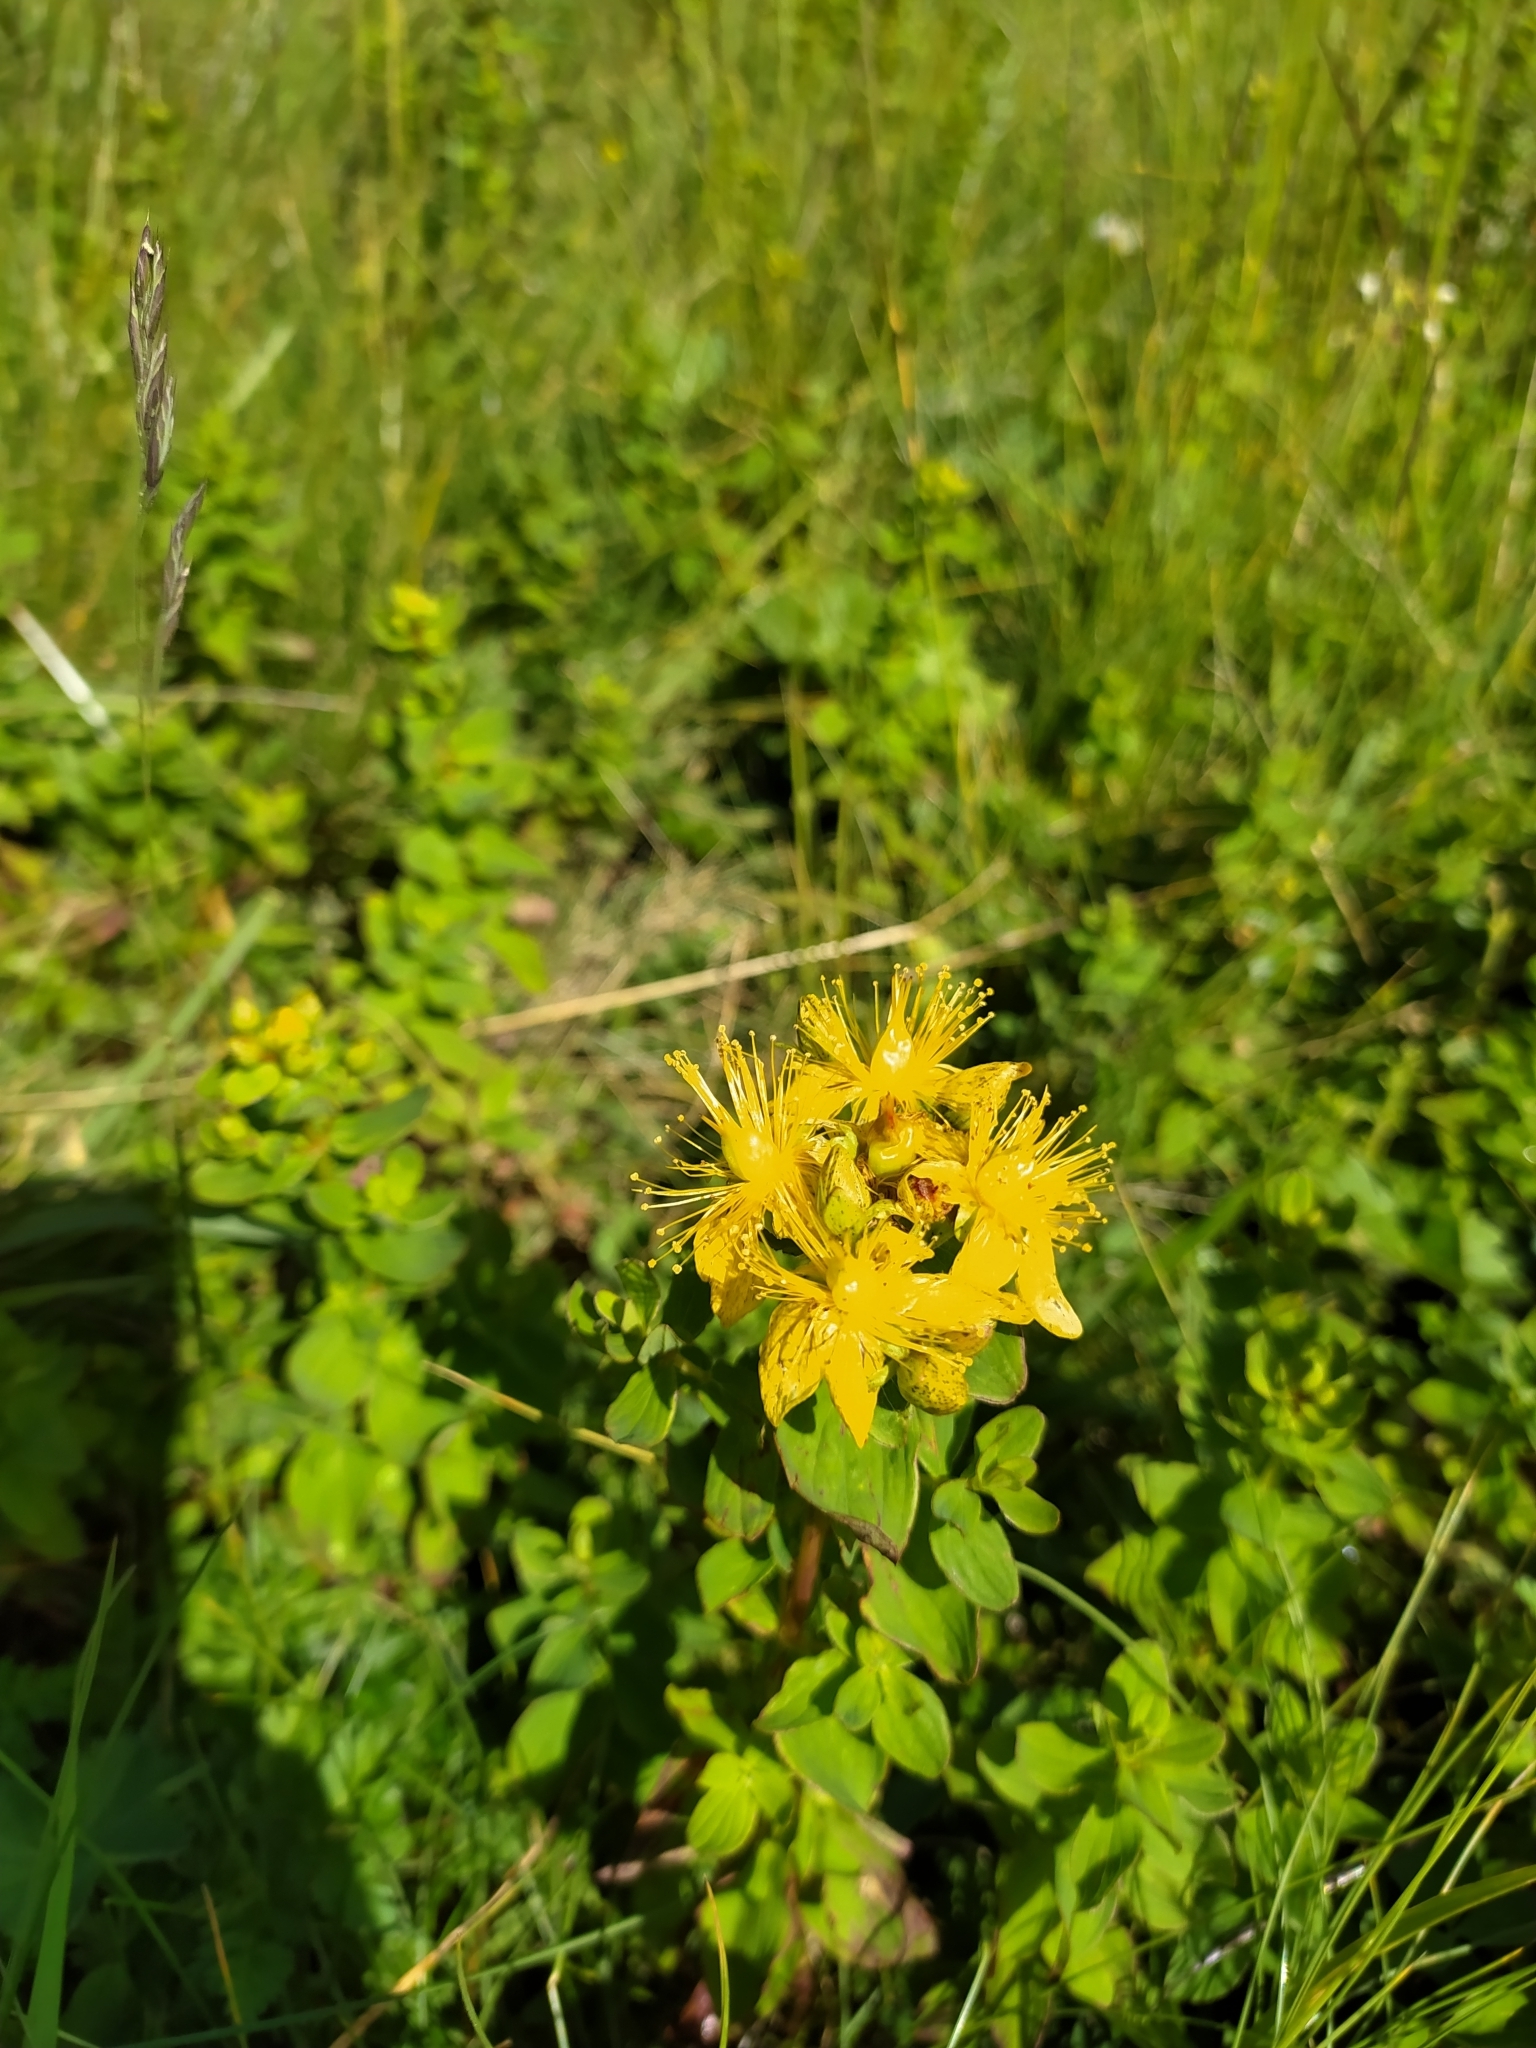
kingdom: Plantae
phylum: Tracheophyta
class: Magnoliopsida
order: Malpighiales
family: Hypericaceae
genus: Hypericum
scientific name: Hypericum maculatum
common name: Imperforate st. john's-wort
